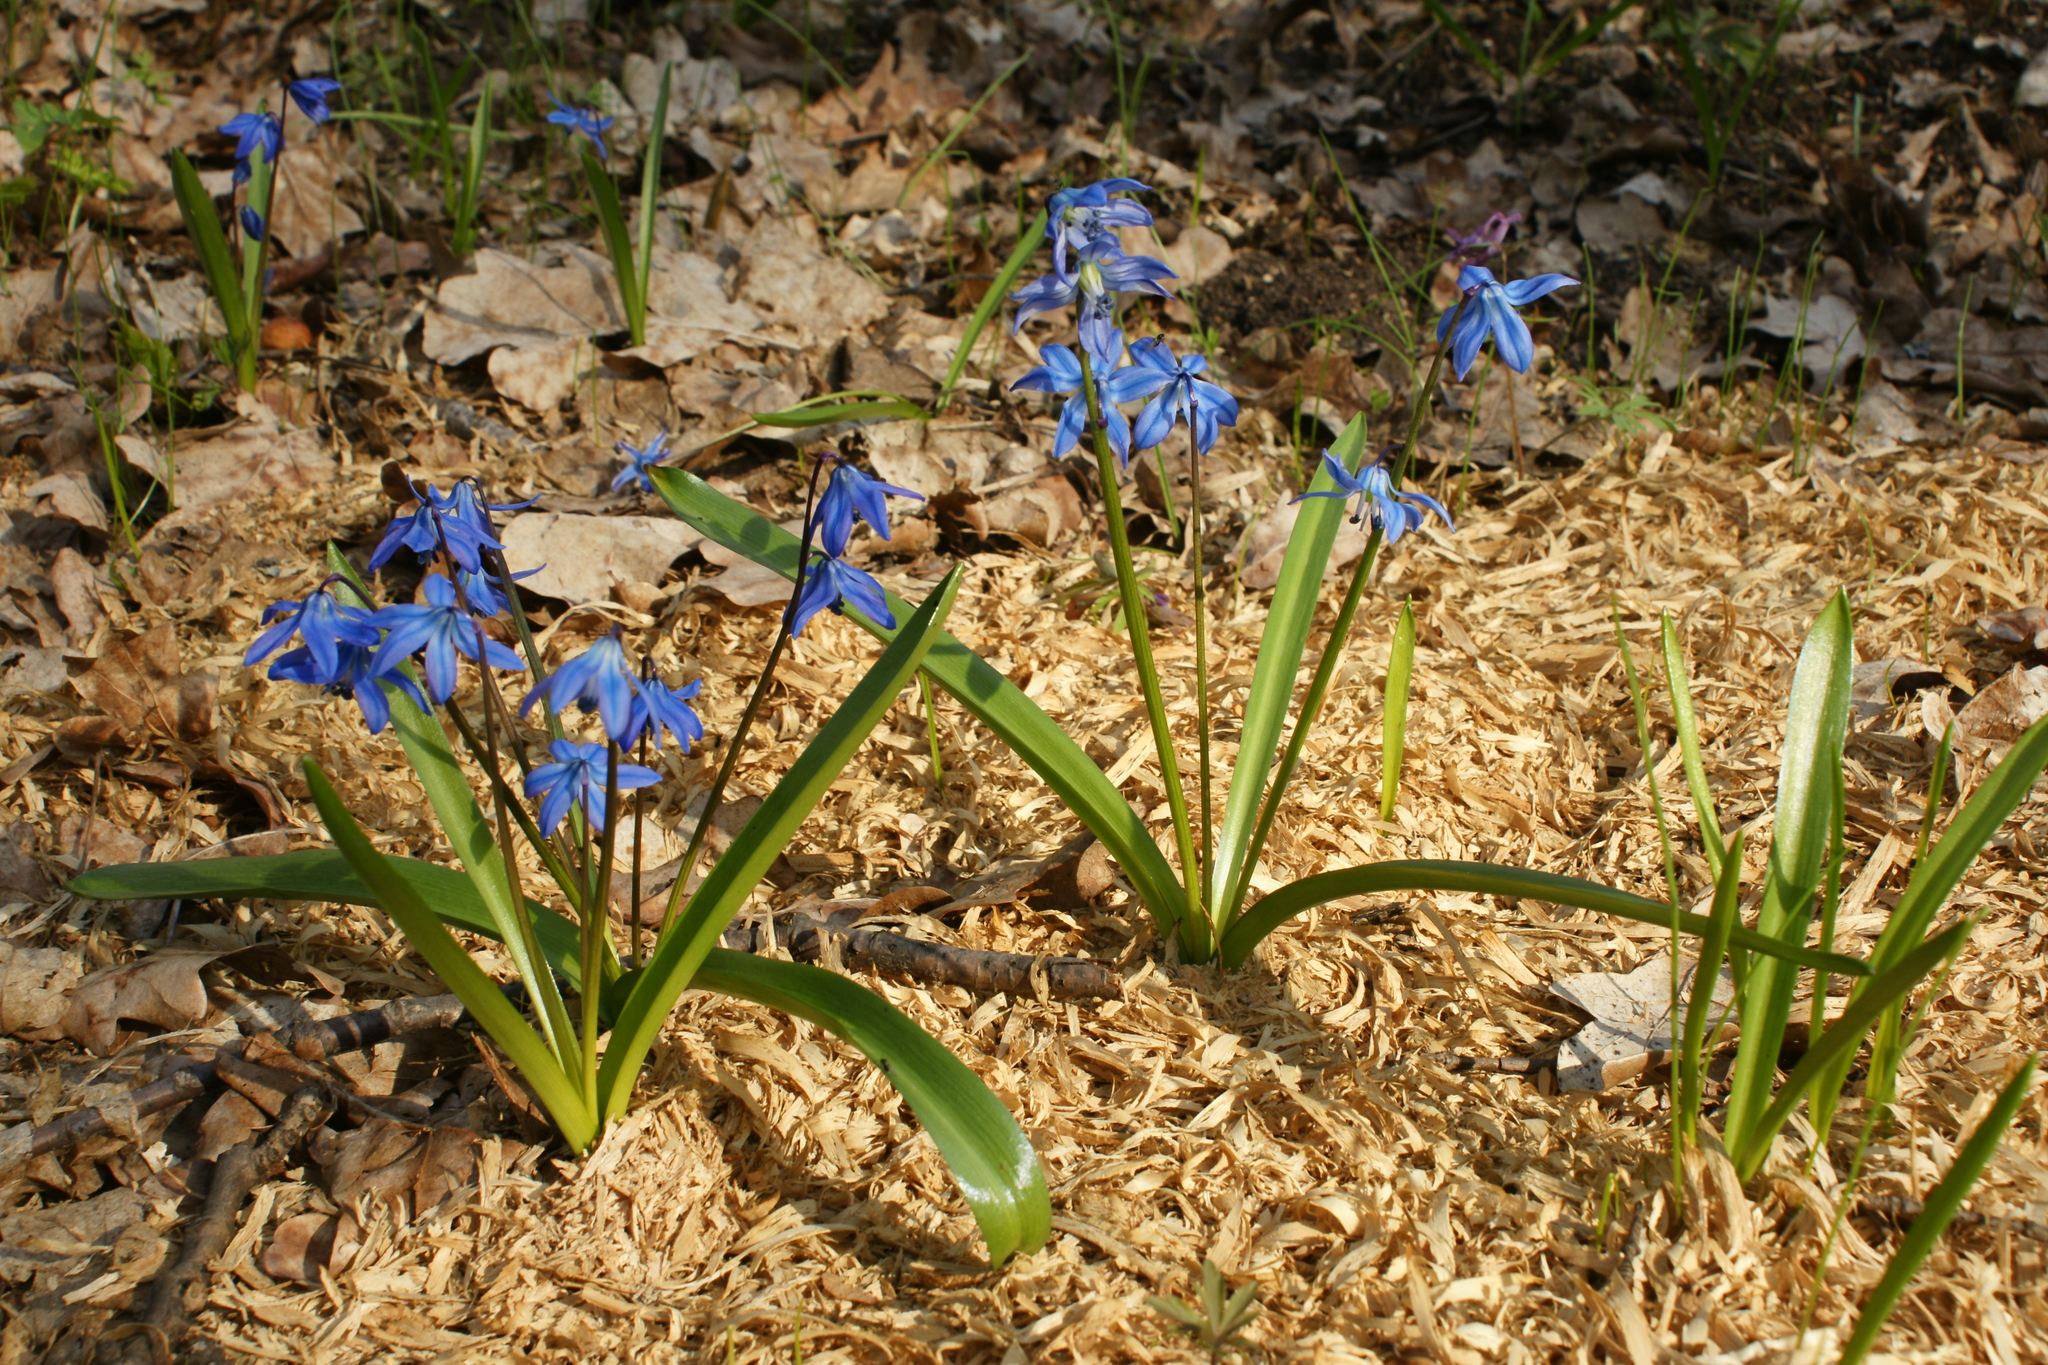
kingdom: Plantae
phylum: Tracheophyta
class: Liliopsida
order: Asparagales
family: Asparagaceae
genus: Scilla
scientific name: Scilla siberica
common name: Siberian squill
